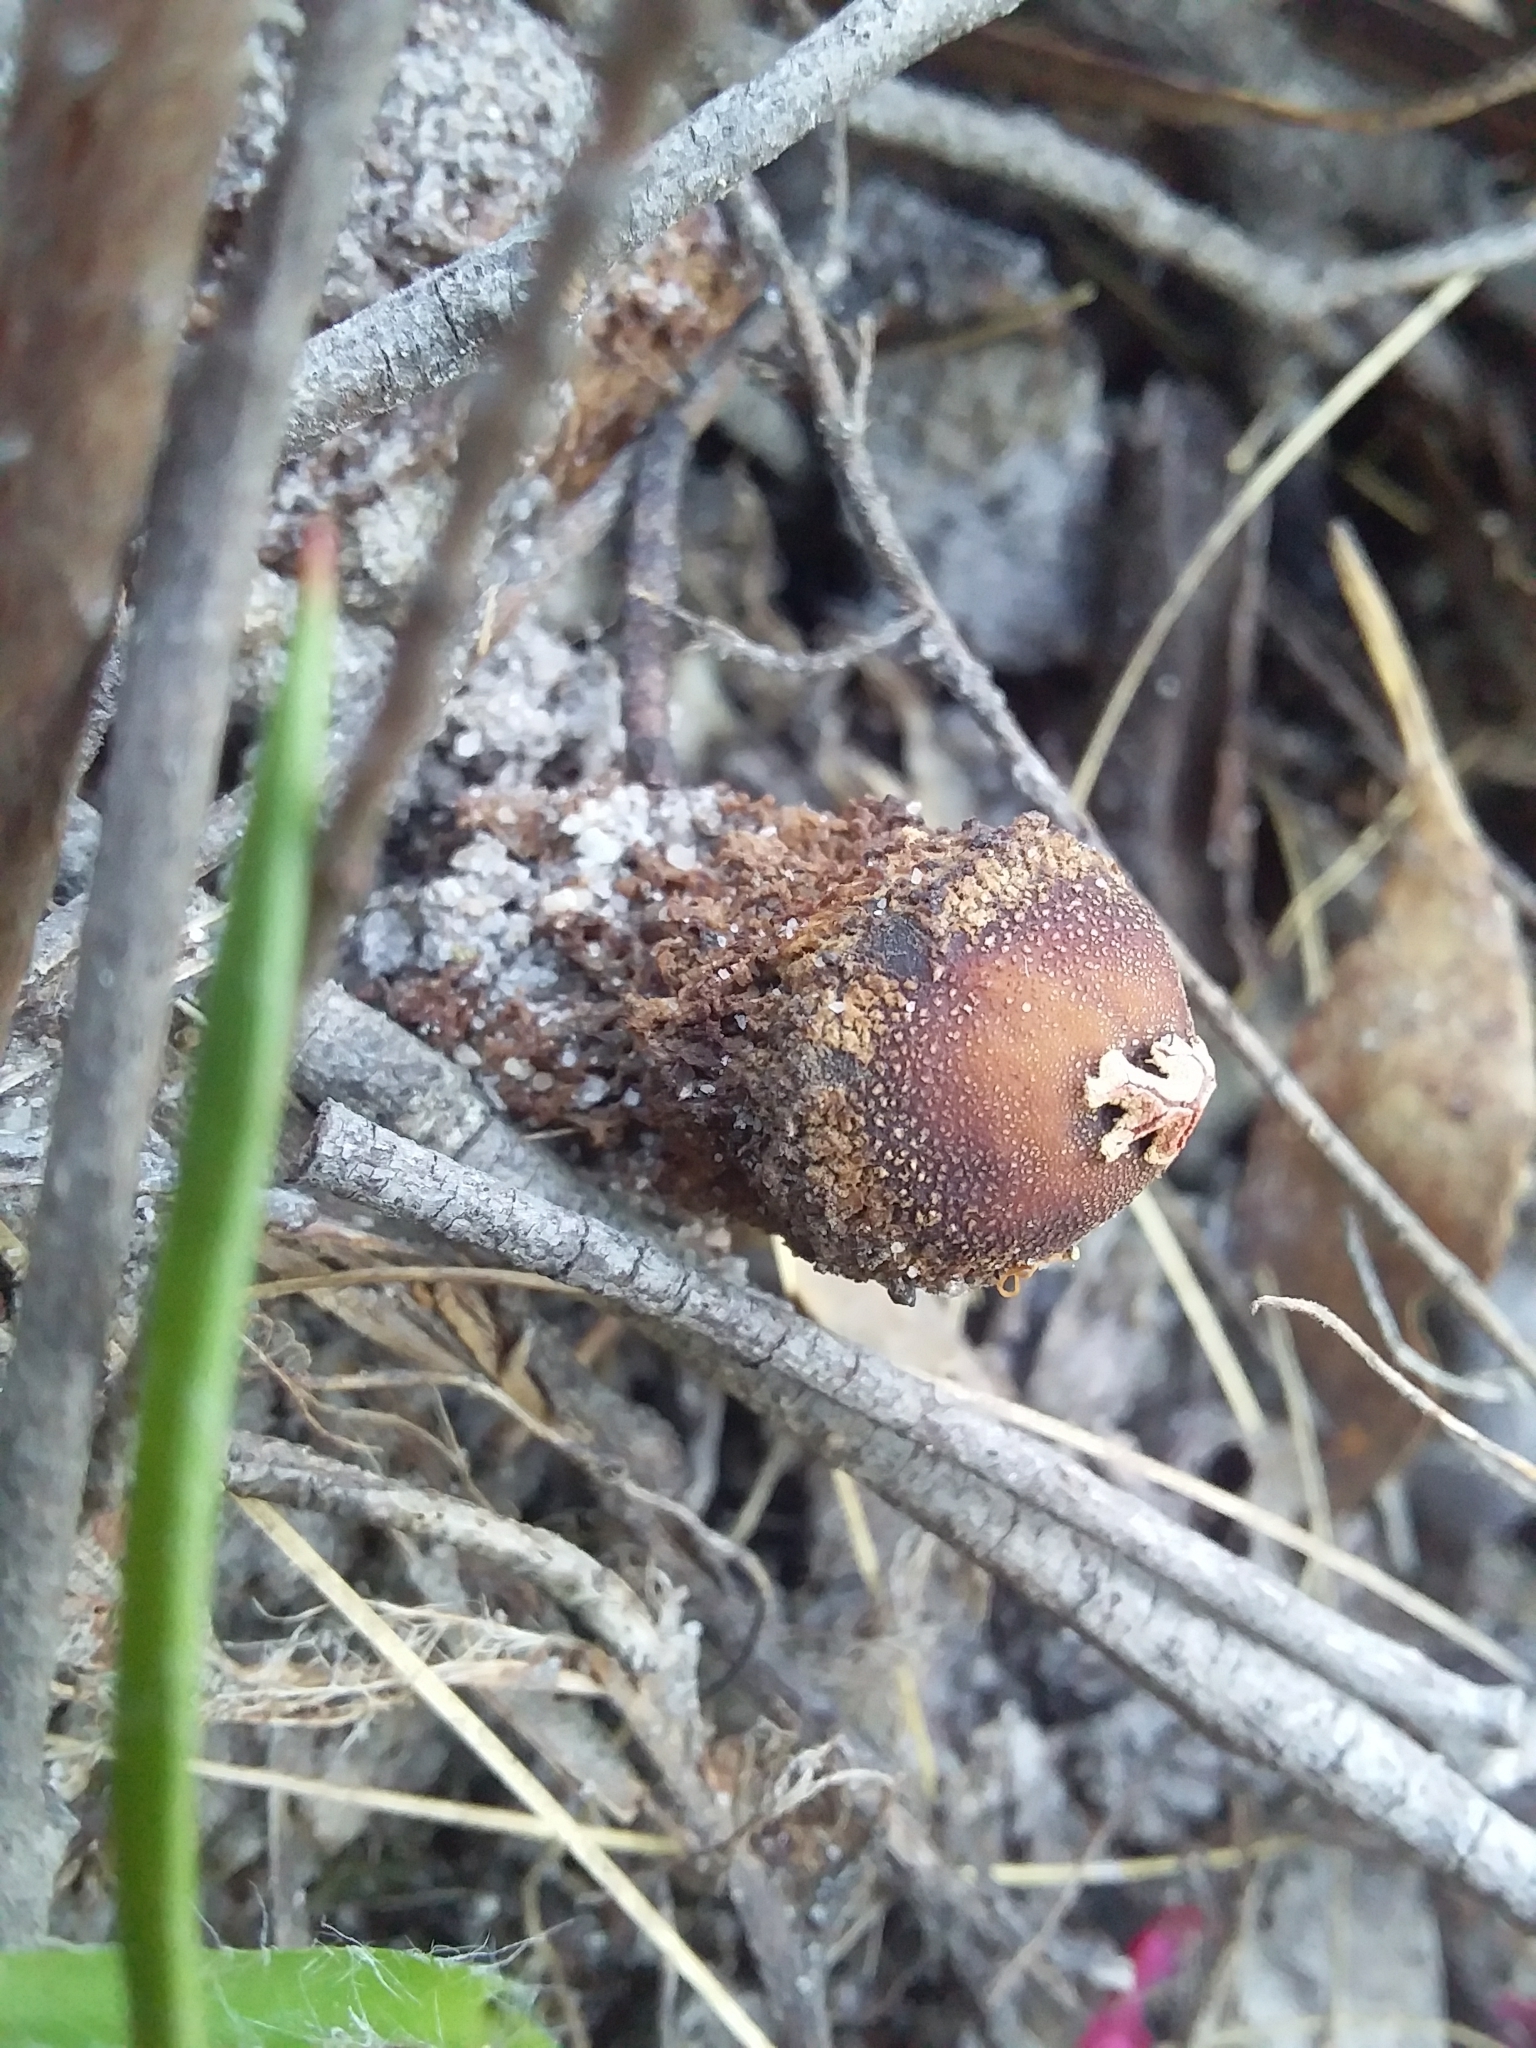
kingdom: Fungi
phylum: Basidiomycota
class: Agaricomycetes
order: Boletales
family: Calostomataceae
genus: Calostoma
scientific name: Calostoma fuscum
